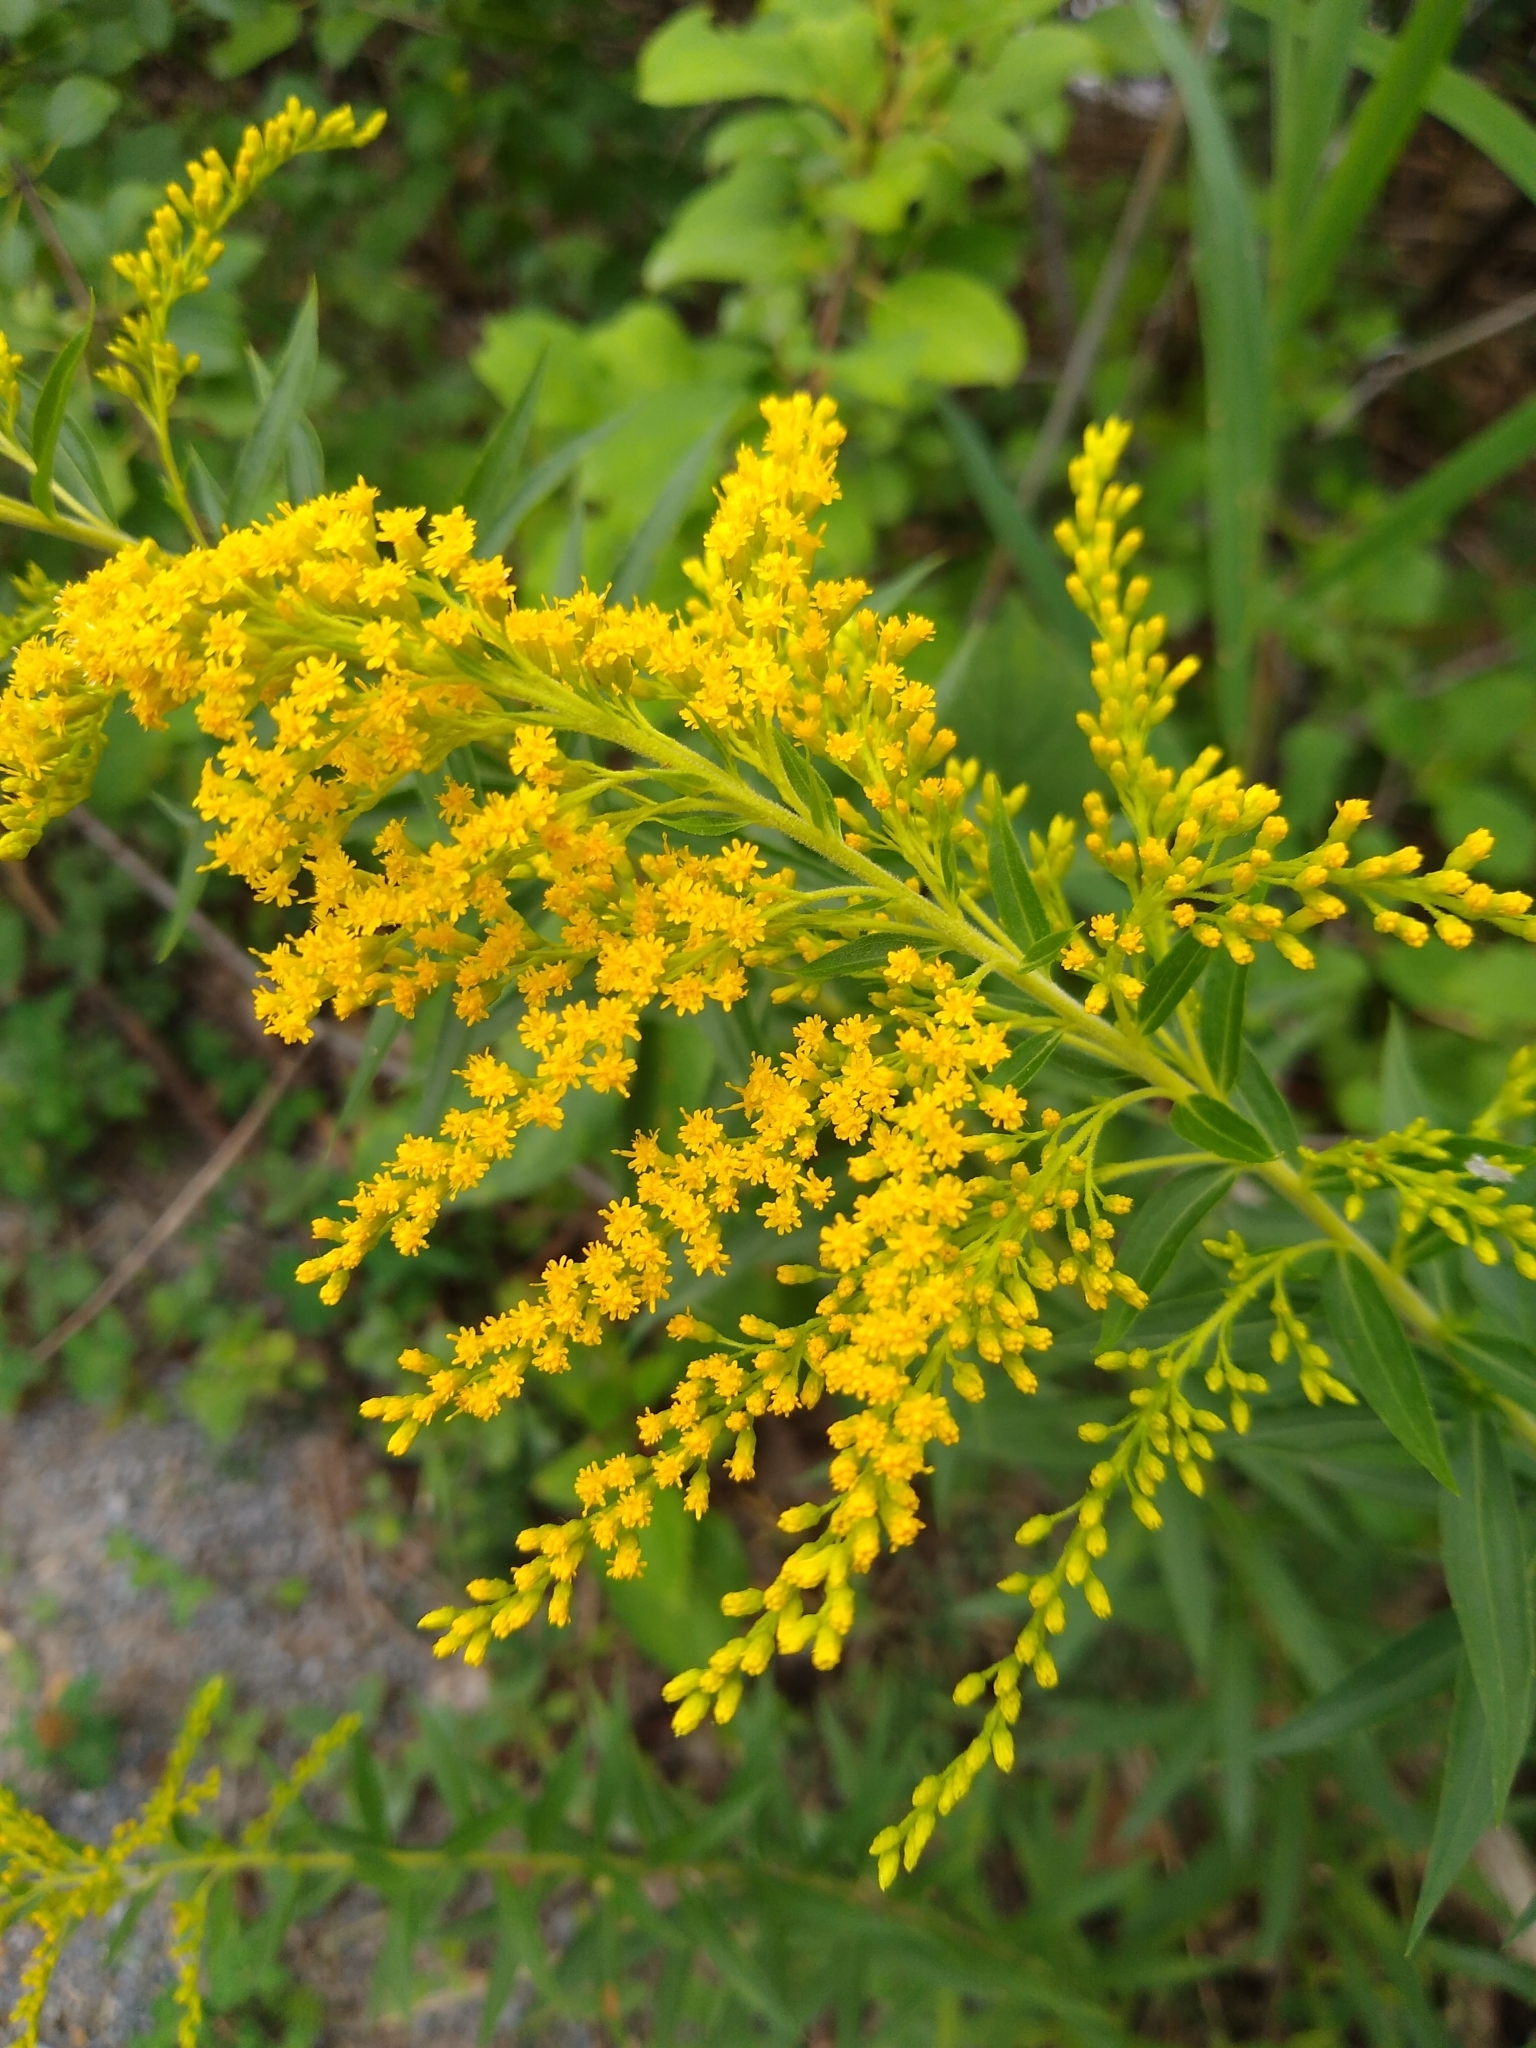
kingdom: Plantae
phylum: Tracheophyta
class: Magnoliopsida
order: Asterales
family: Asteraceae
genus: Solidago
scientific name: Solidago canadensis
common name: Canada goldenrod
